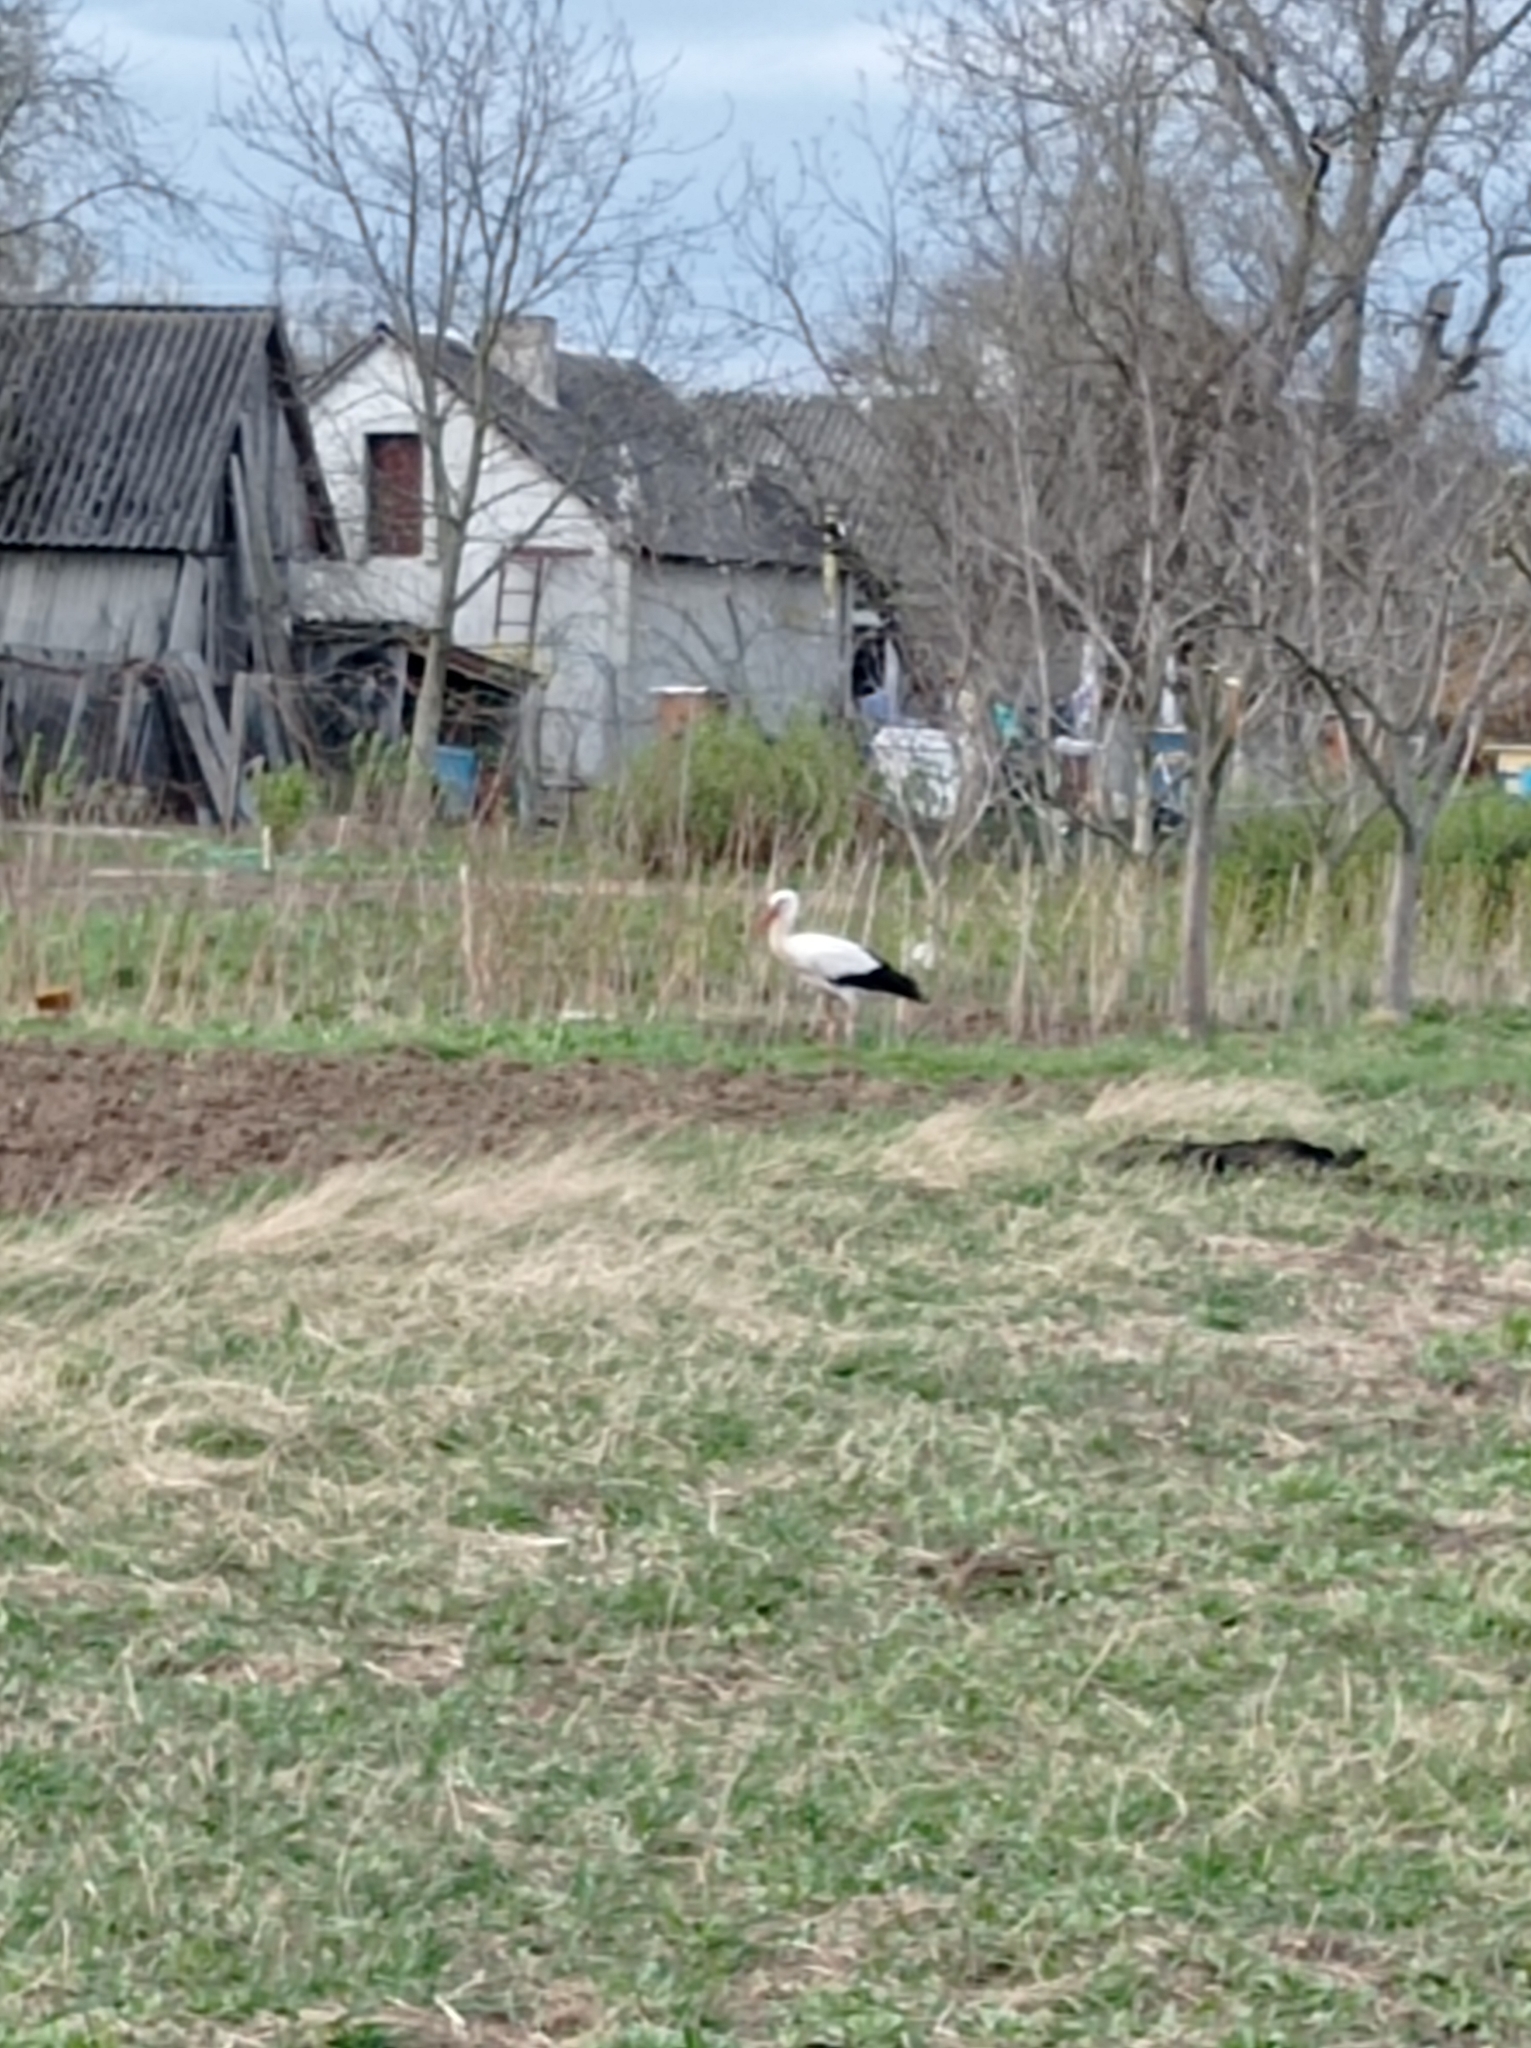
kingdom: Animalia
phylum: Chordata
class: Aves
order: Ciconiiformes
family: Ciconiidae
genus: Ciconia
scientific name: Ciconia ciconia
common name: White stork
